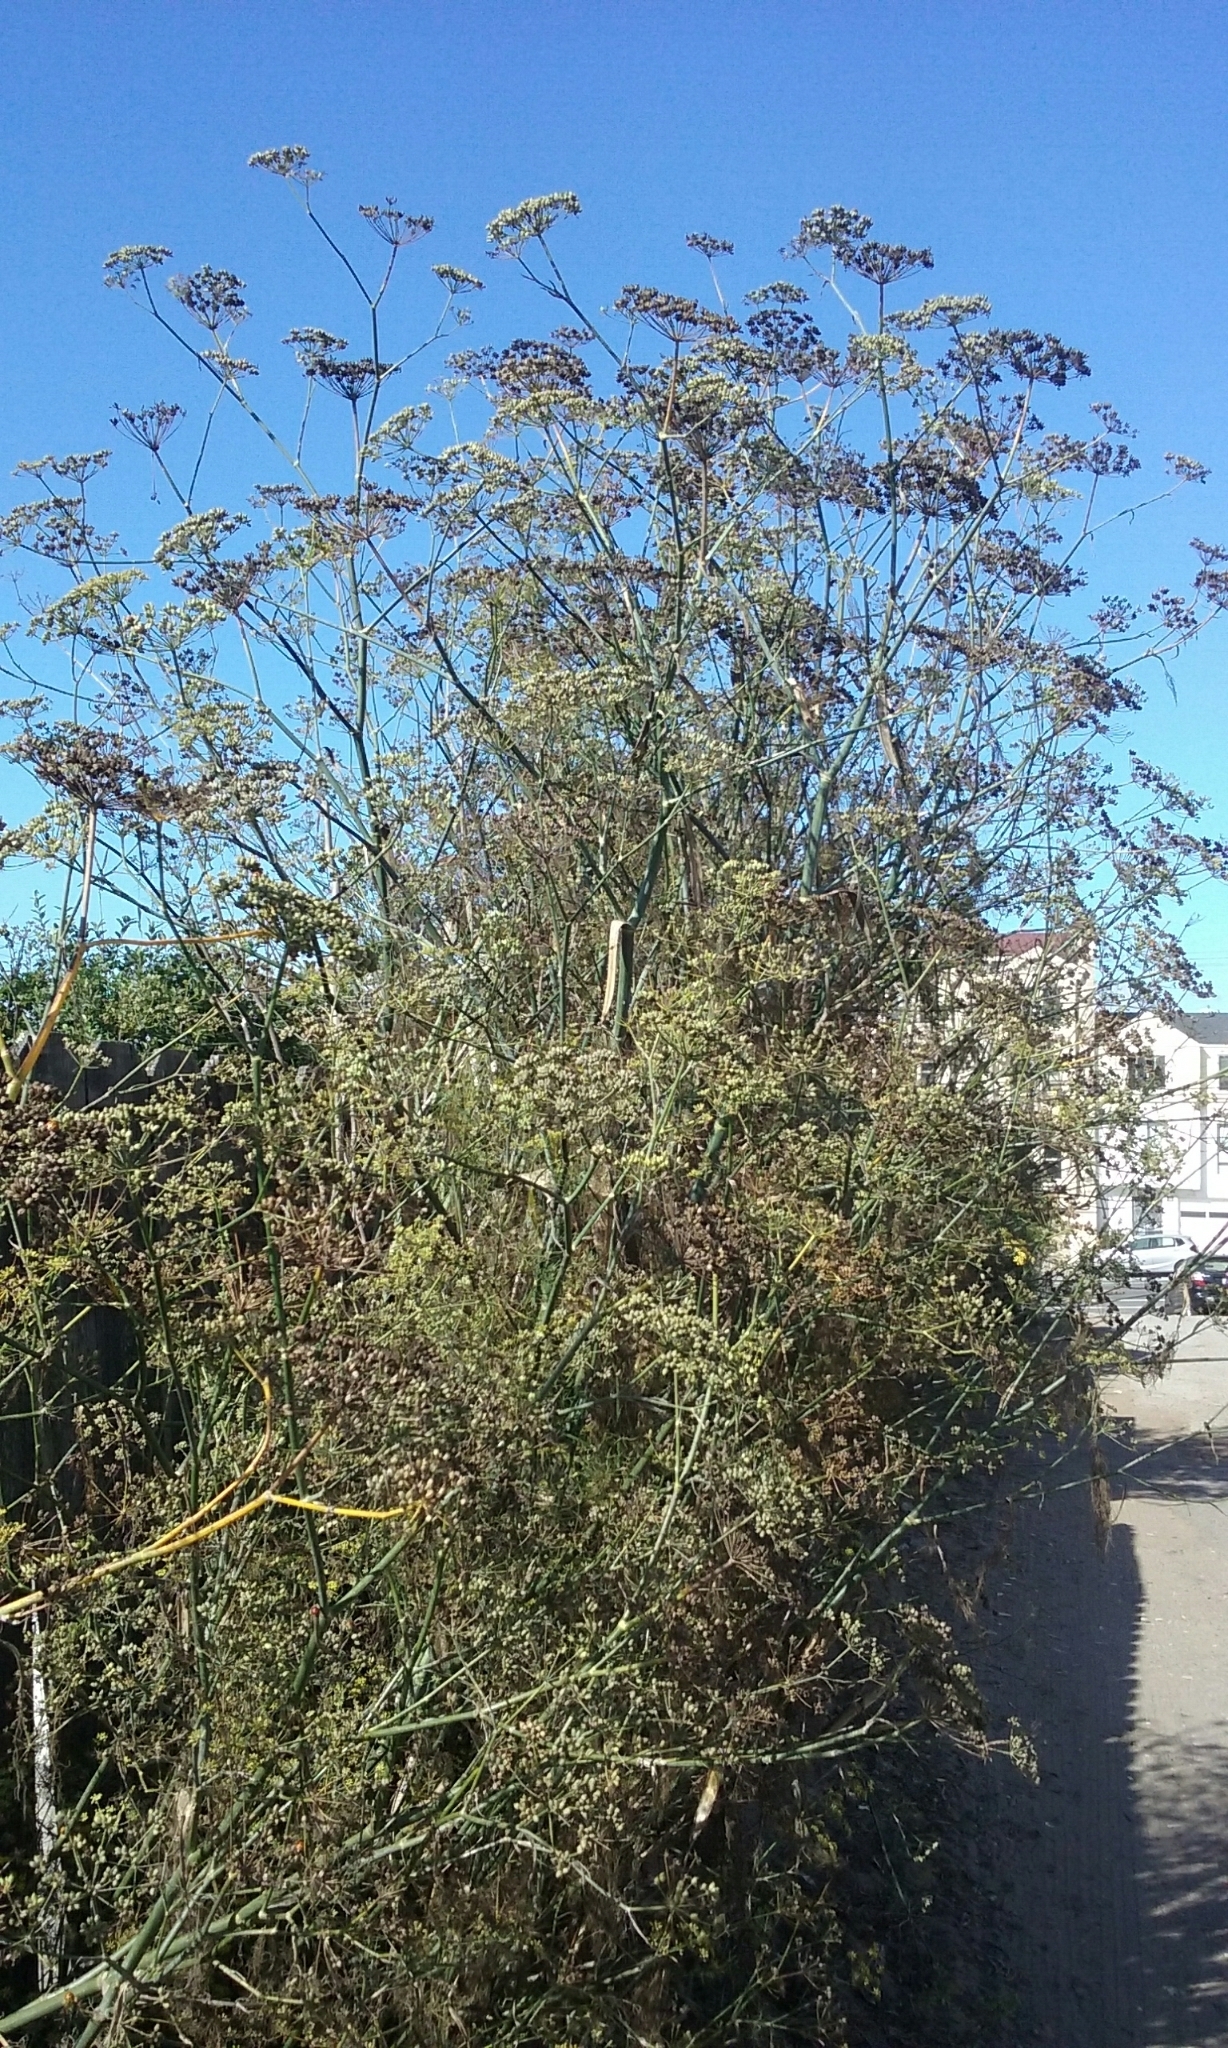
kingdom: Plantae
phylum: Tracheophyta
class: Magnoliopsida
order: Apiales
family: Apiaceae
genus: Foeniculum
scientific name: Foeniculum vulgare
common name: Fennel
